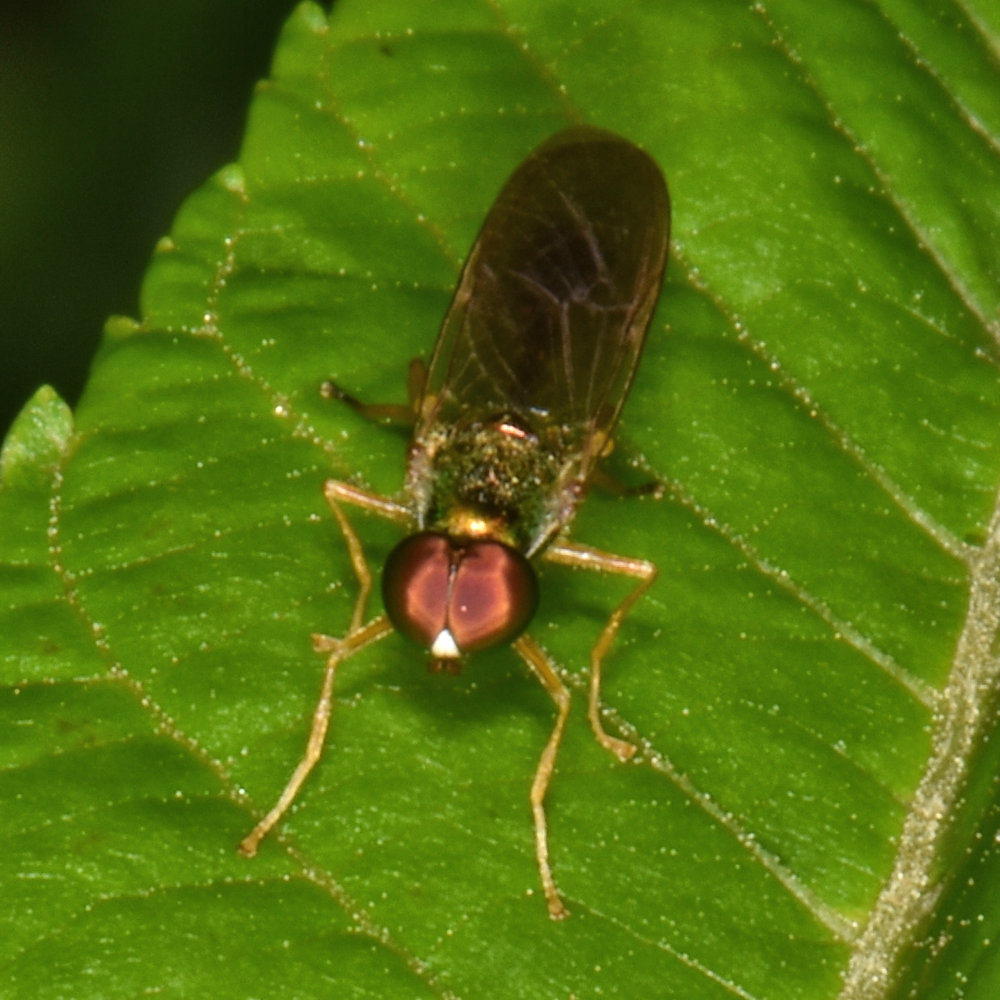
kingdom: Animalia
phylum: Arthropoda
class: Insecta
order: Diptera
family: Stratiomyidae
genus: Sargus
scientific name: Sargus fasciatus
